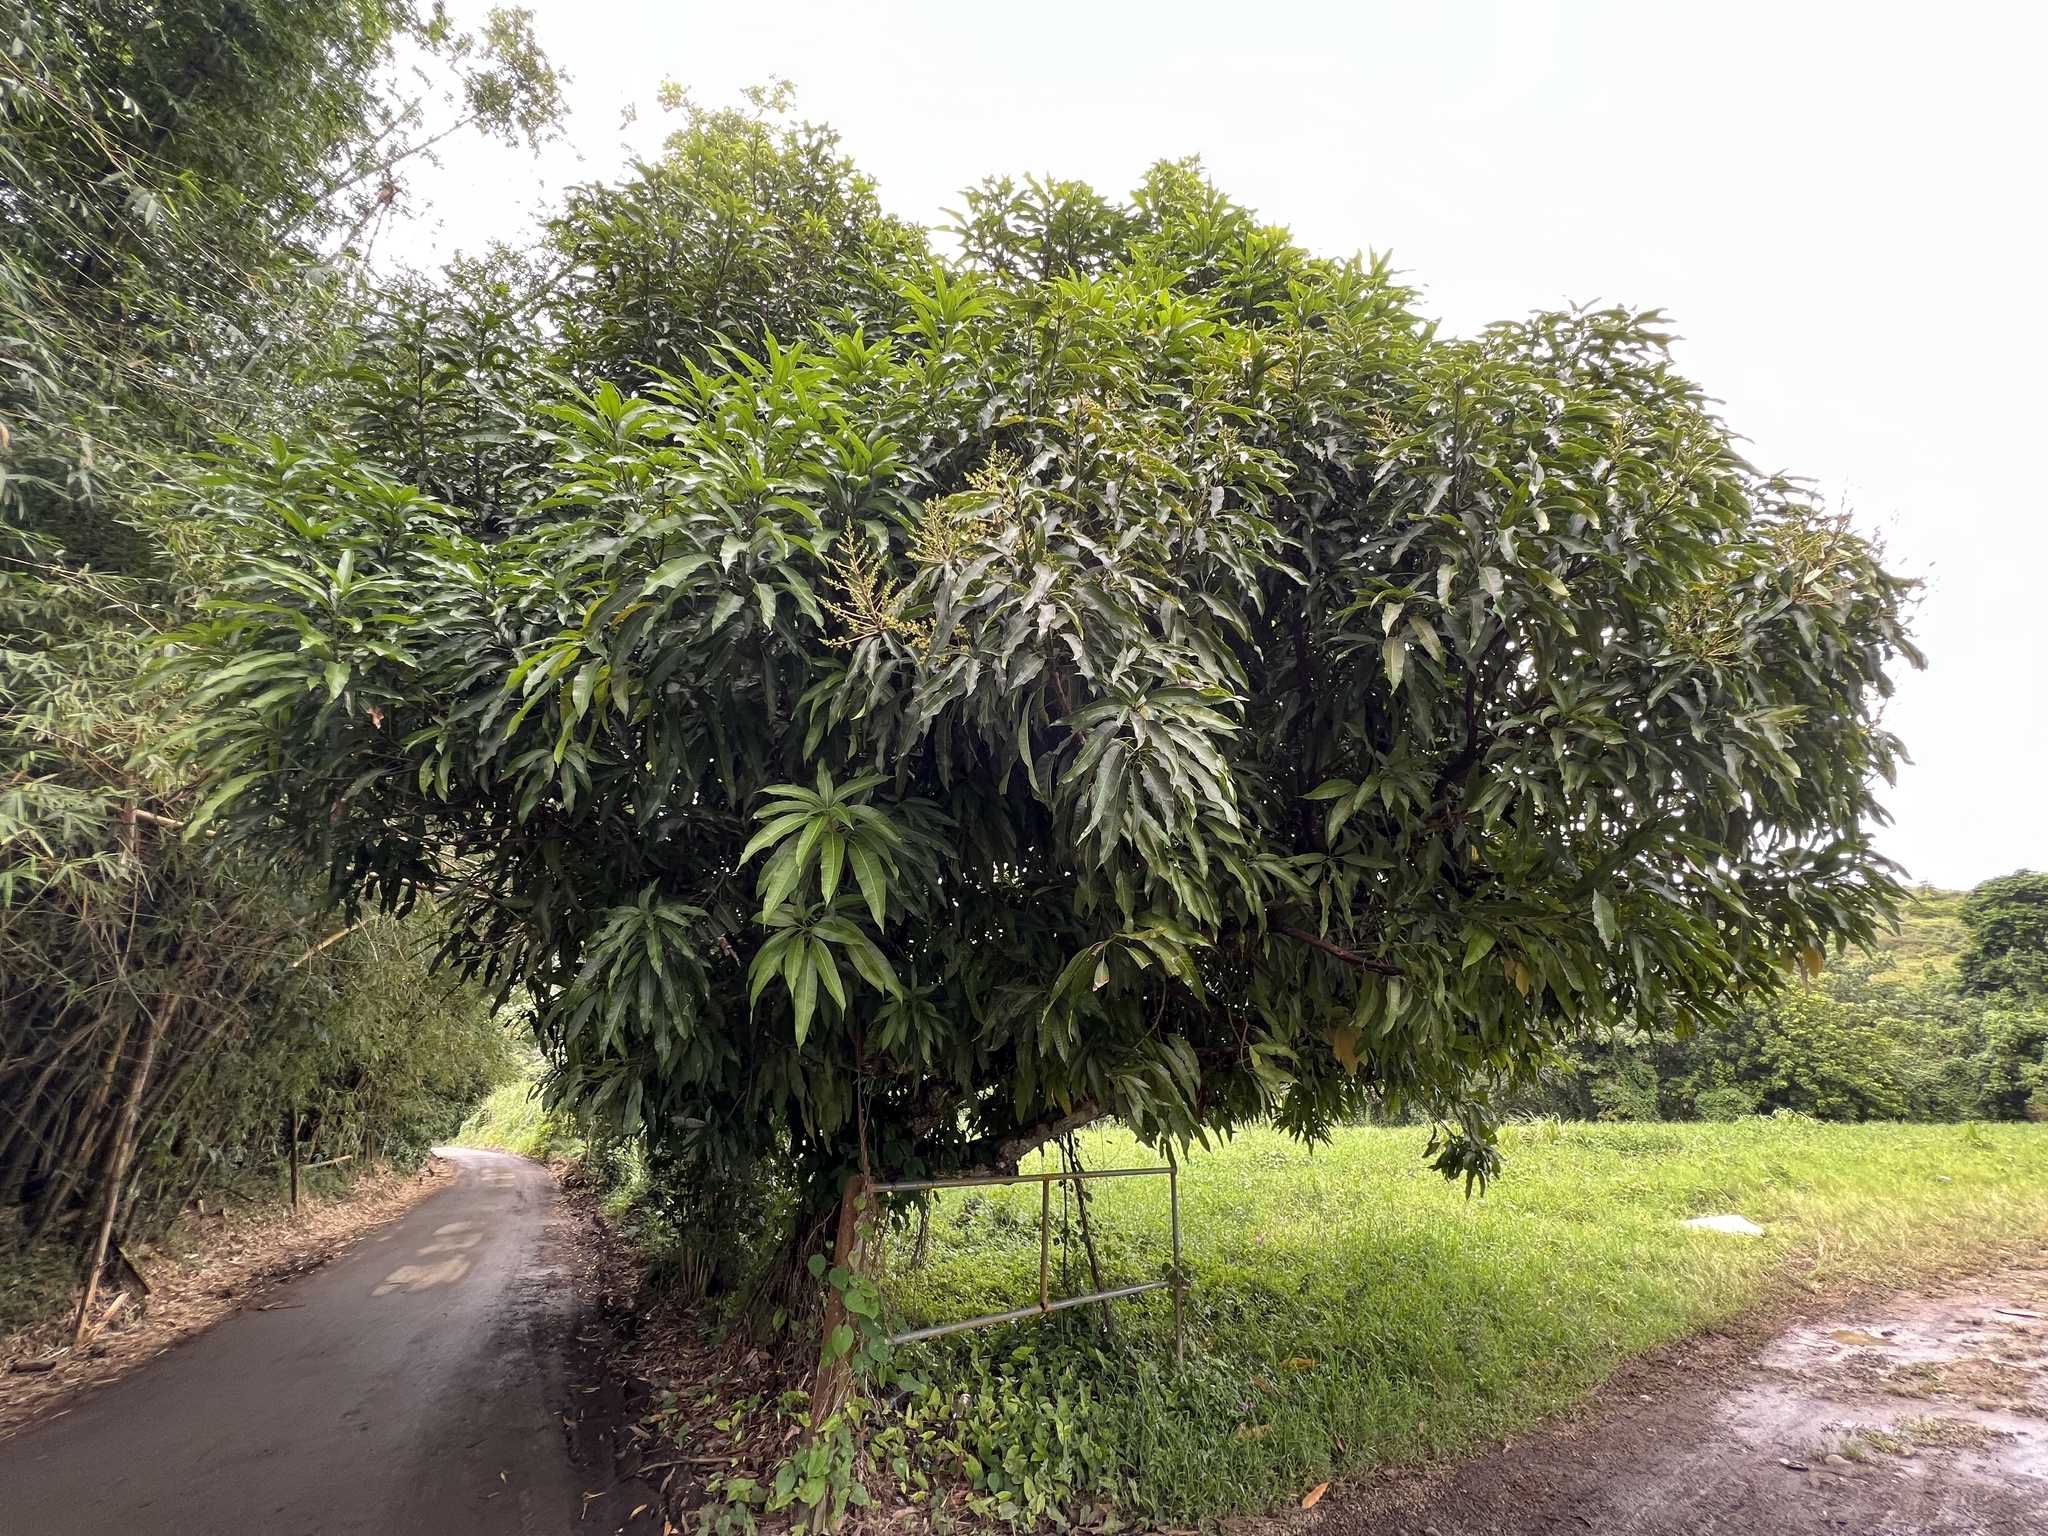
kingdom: Plantae
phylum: Tracheophyta
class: Magnoliopsida
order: Sapindales
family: Anacardiaceae
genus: Mangifera
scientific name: Mangifera indica
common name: Mango
